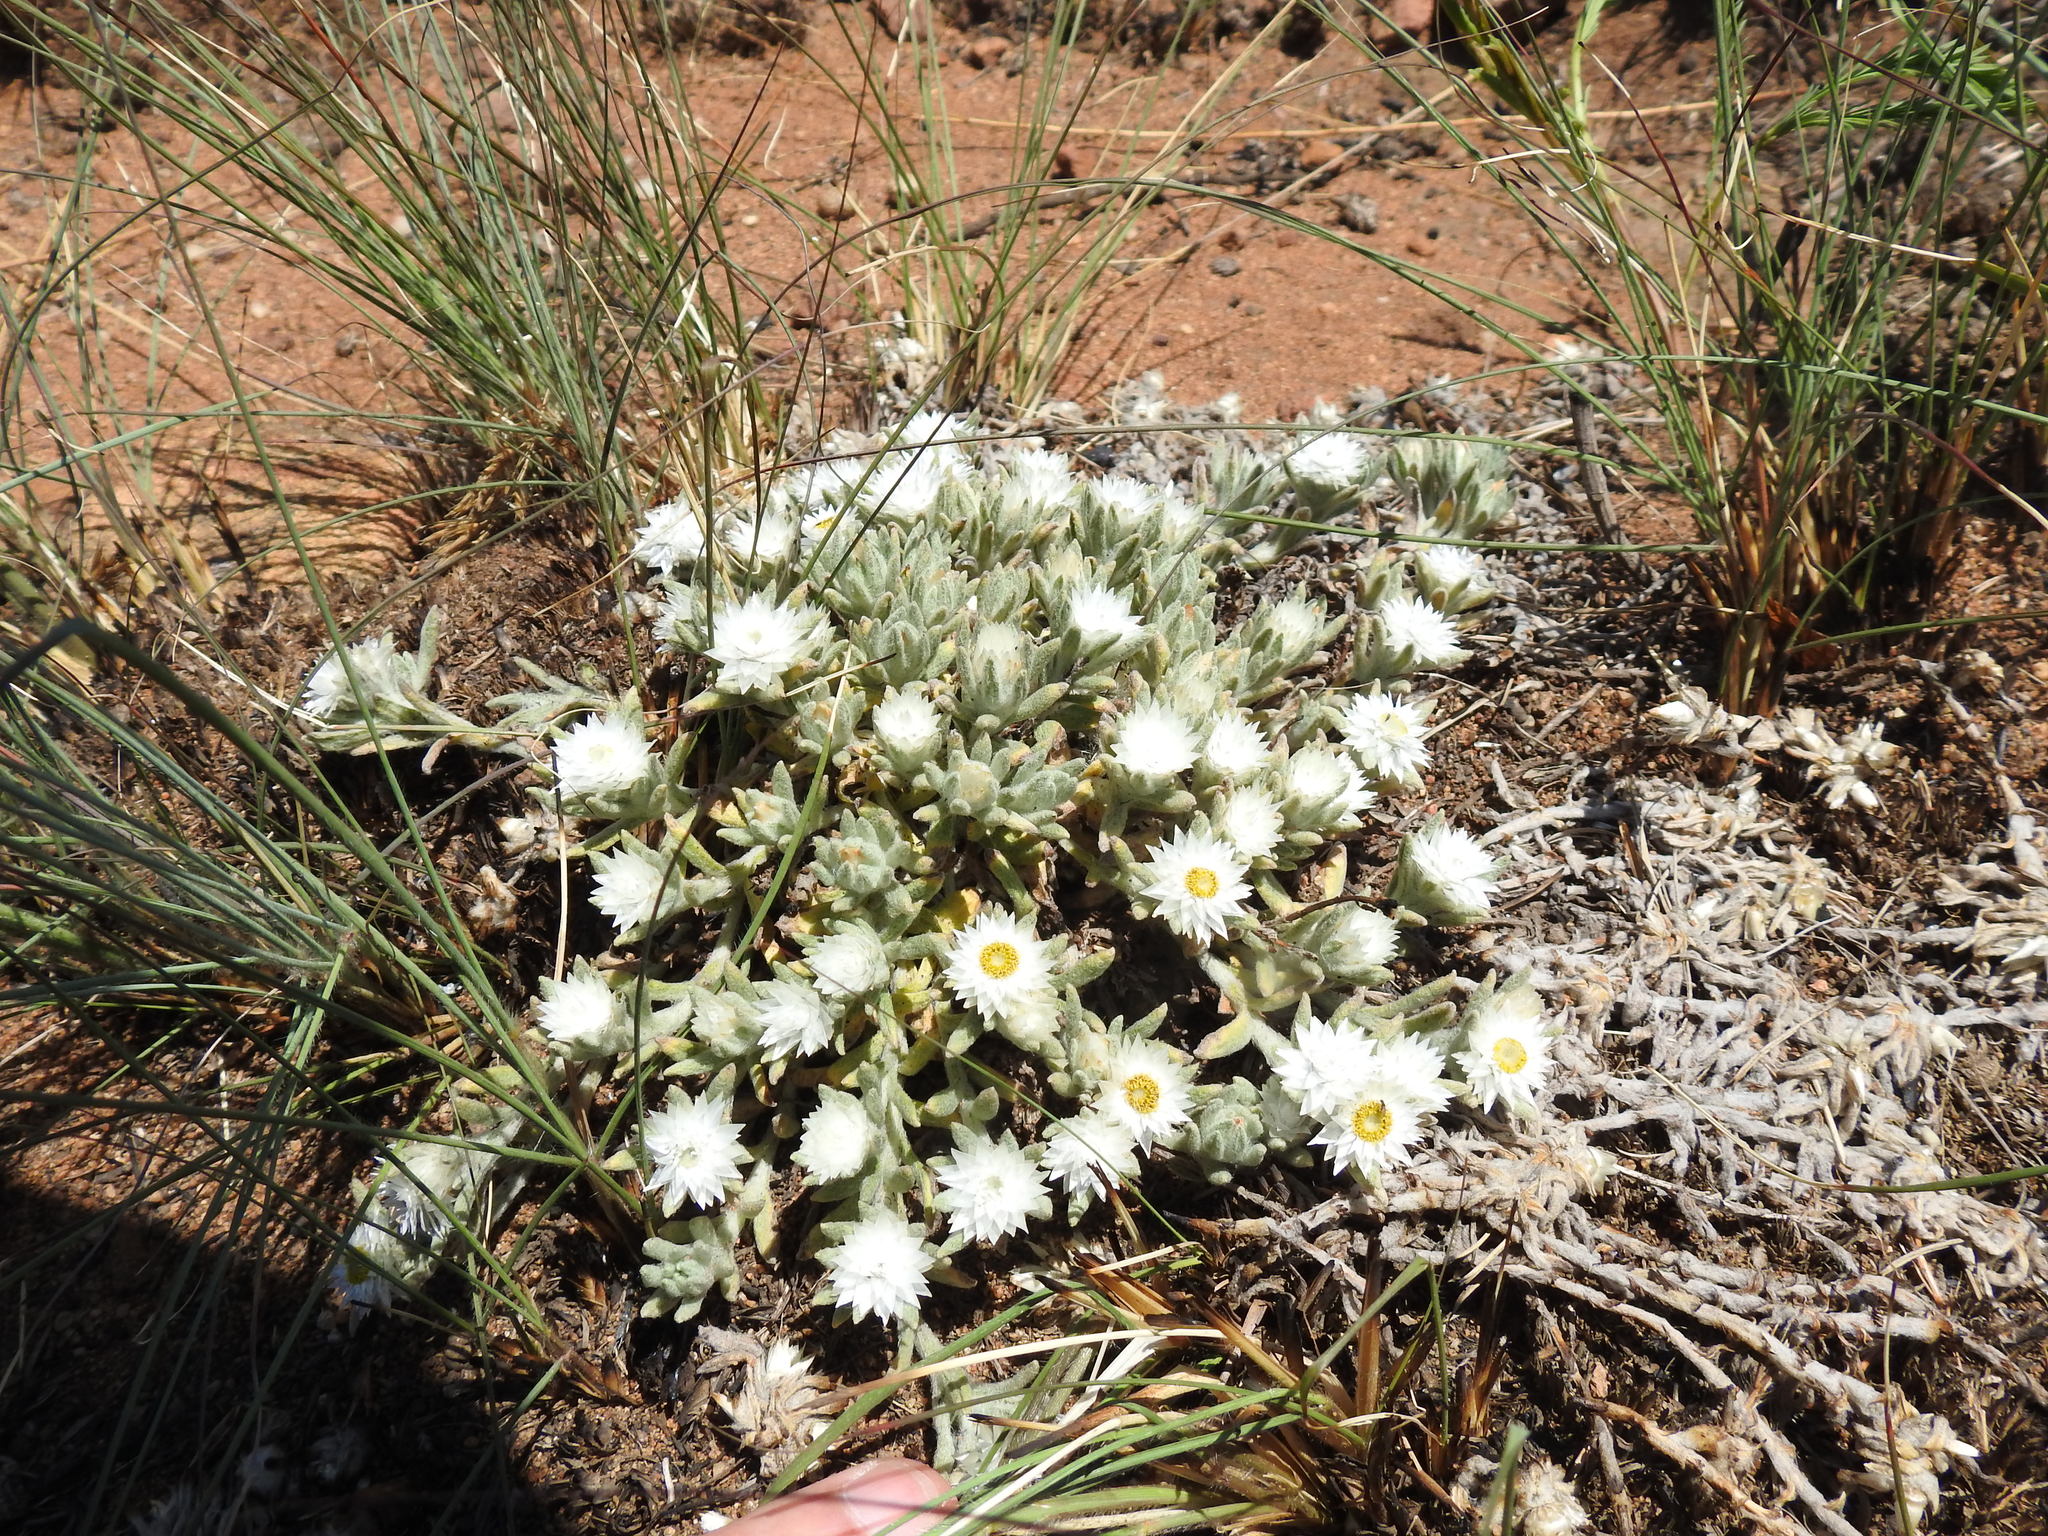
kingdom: Plantae
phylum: Tracheophyta
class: Magnoliopsida
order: Asterales
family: Asteraceae
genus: Helichrysum
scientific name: Helichrysum cerastioides
